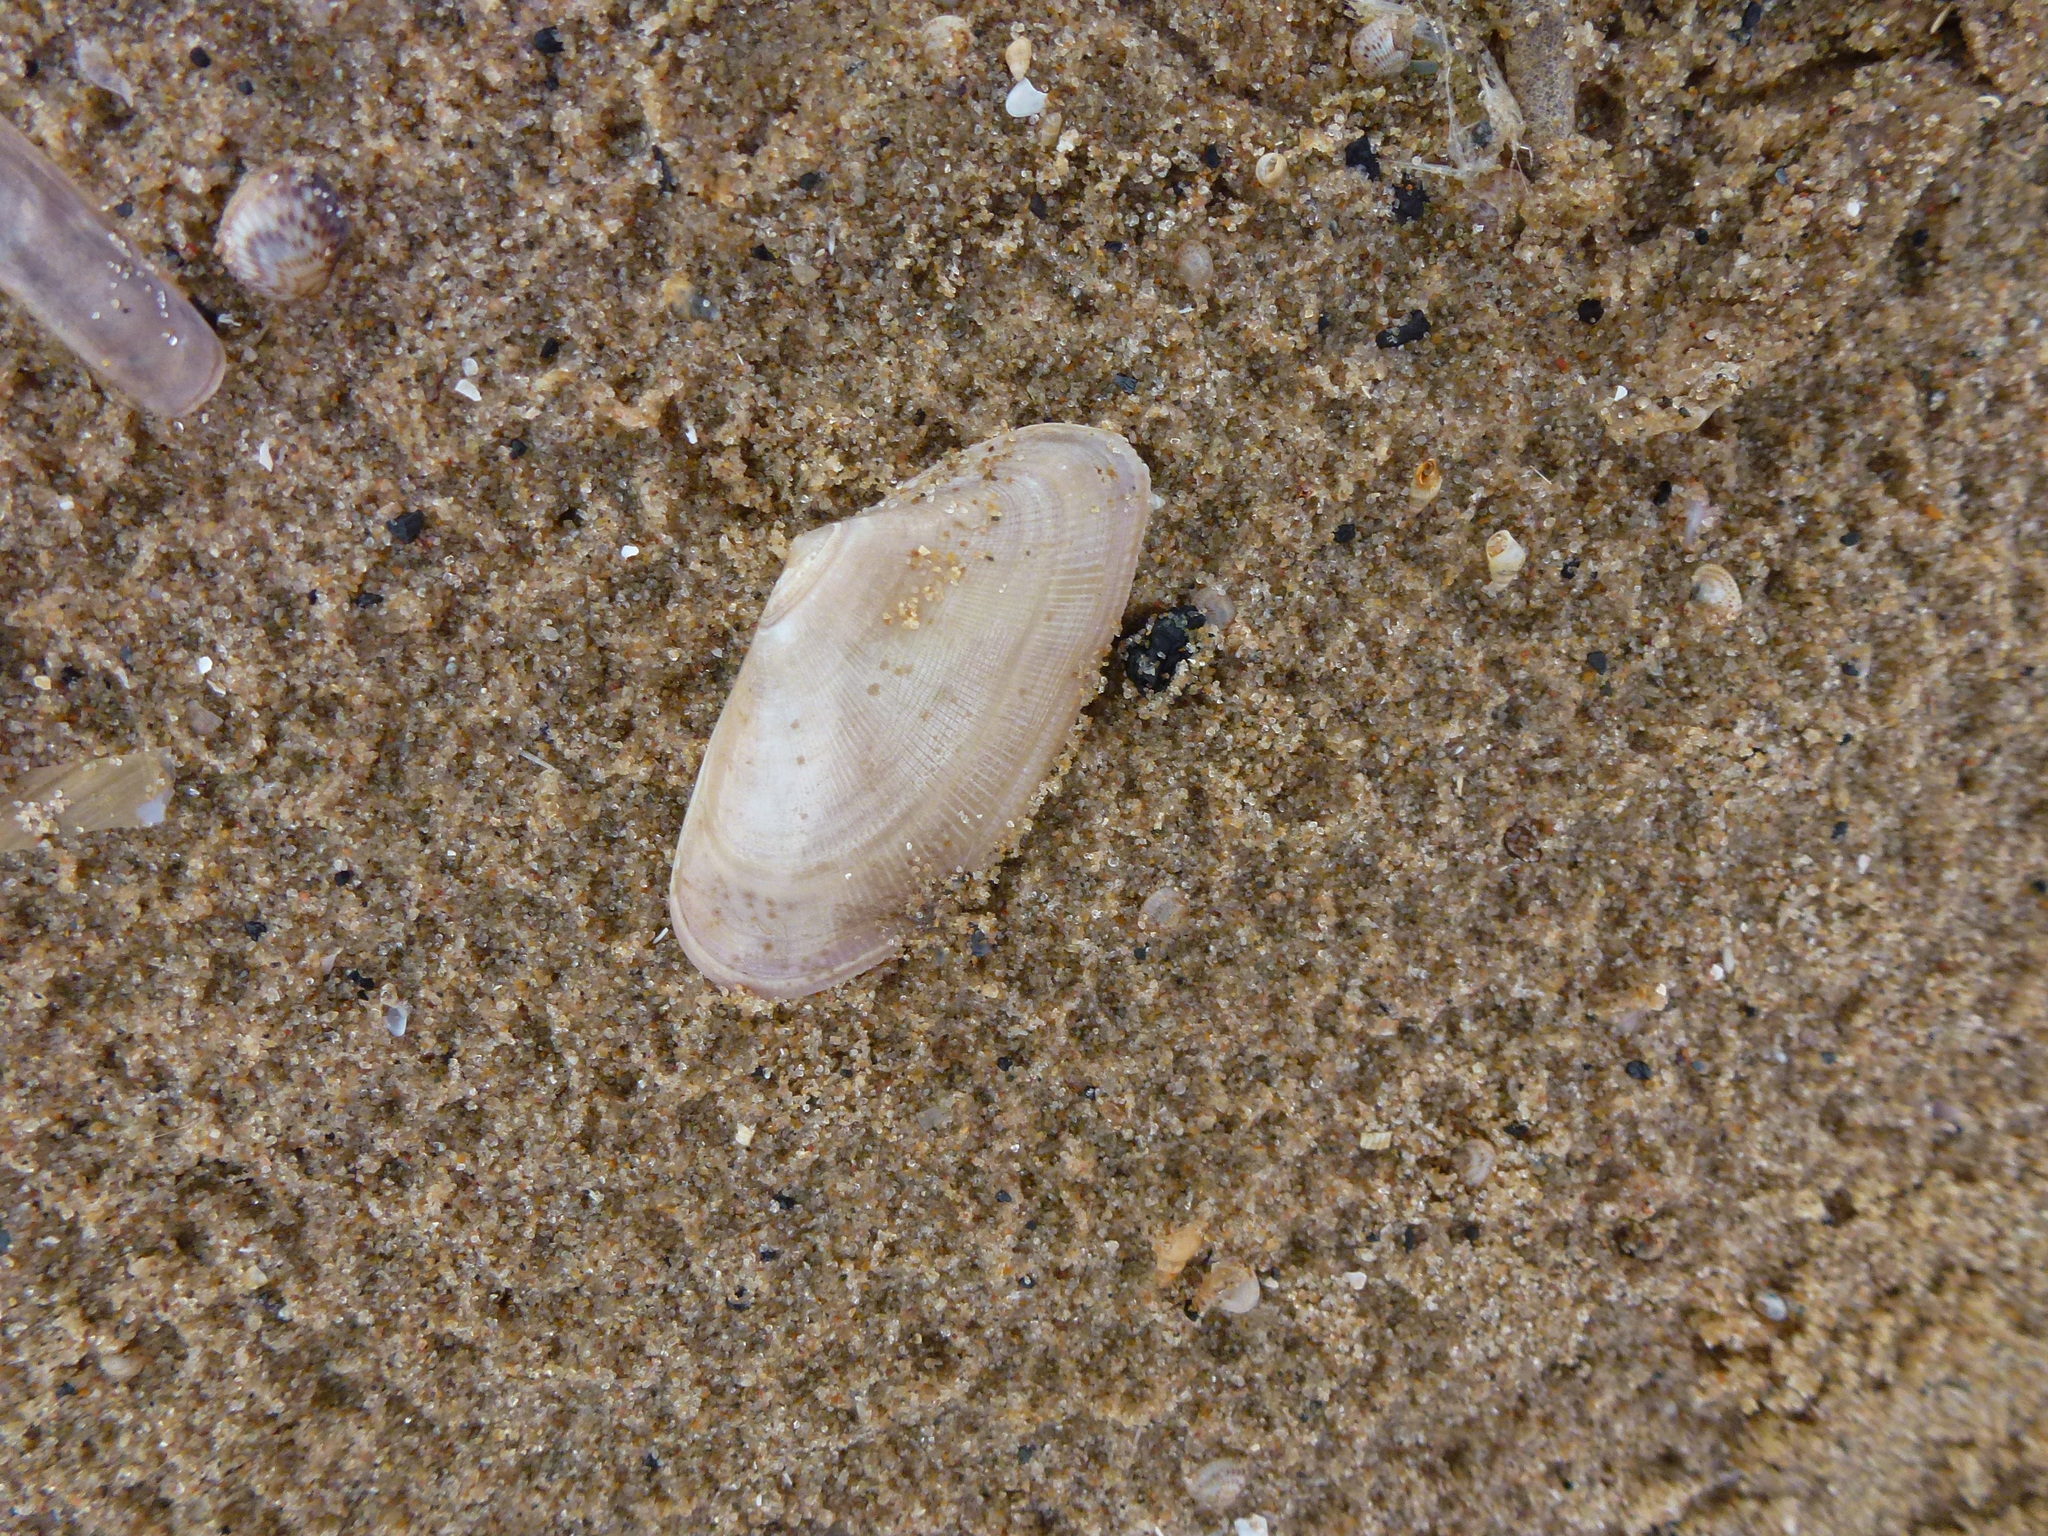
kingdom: Animalia
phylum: Mollusca
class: Bivalvia
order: Cardiida
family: Donacidae
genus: Donax
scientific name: Donax vittatus
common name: Banded wedge-shell
